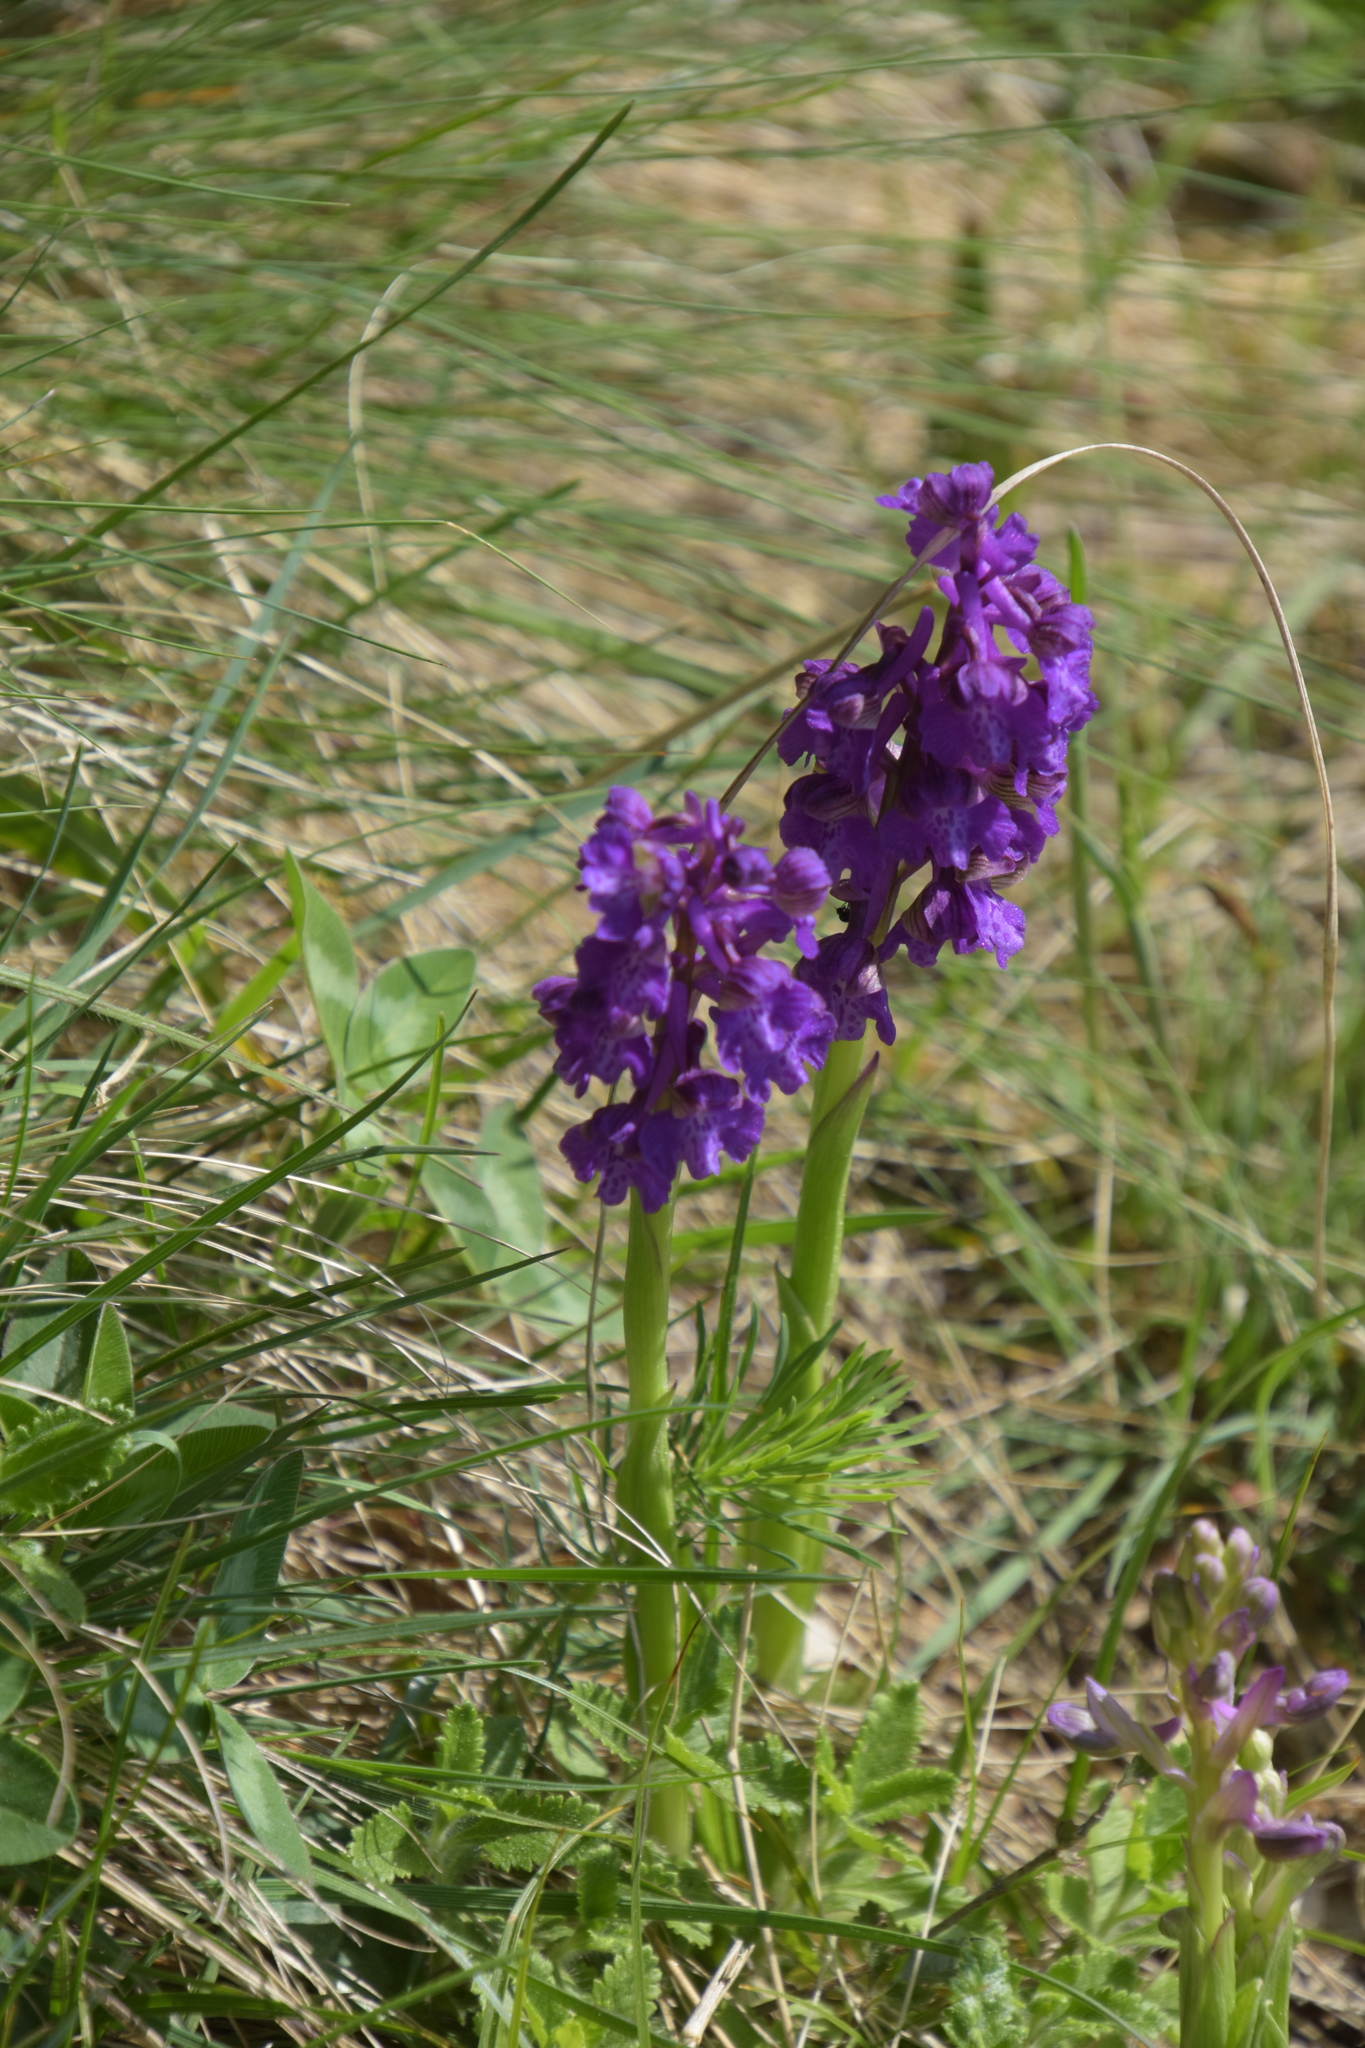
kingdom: Plantae
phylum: Tracheophyta
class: Liliopsida
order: Asparagales
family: Orchidaceae
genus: Anacamptis
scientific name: Anacamptis morio
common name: Green-winged orchid
